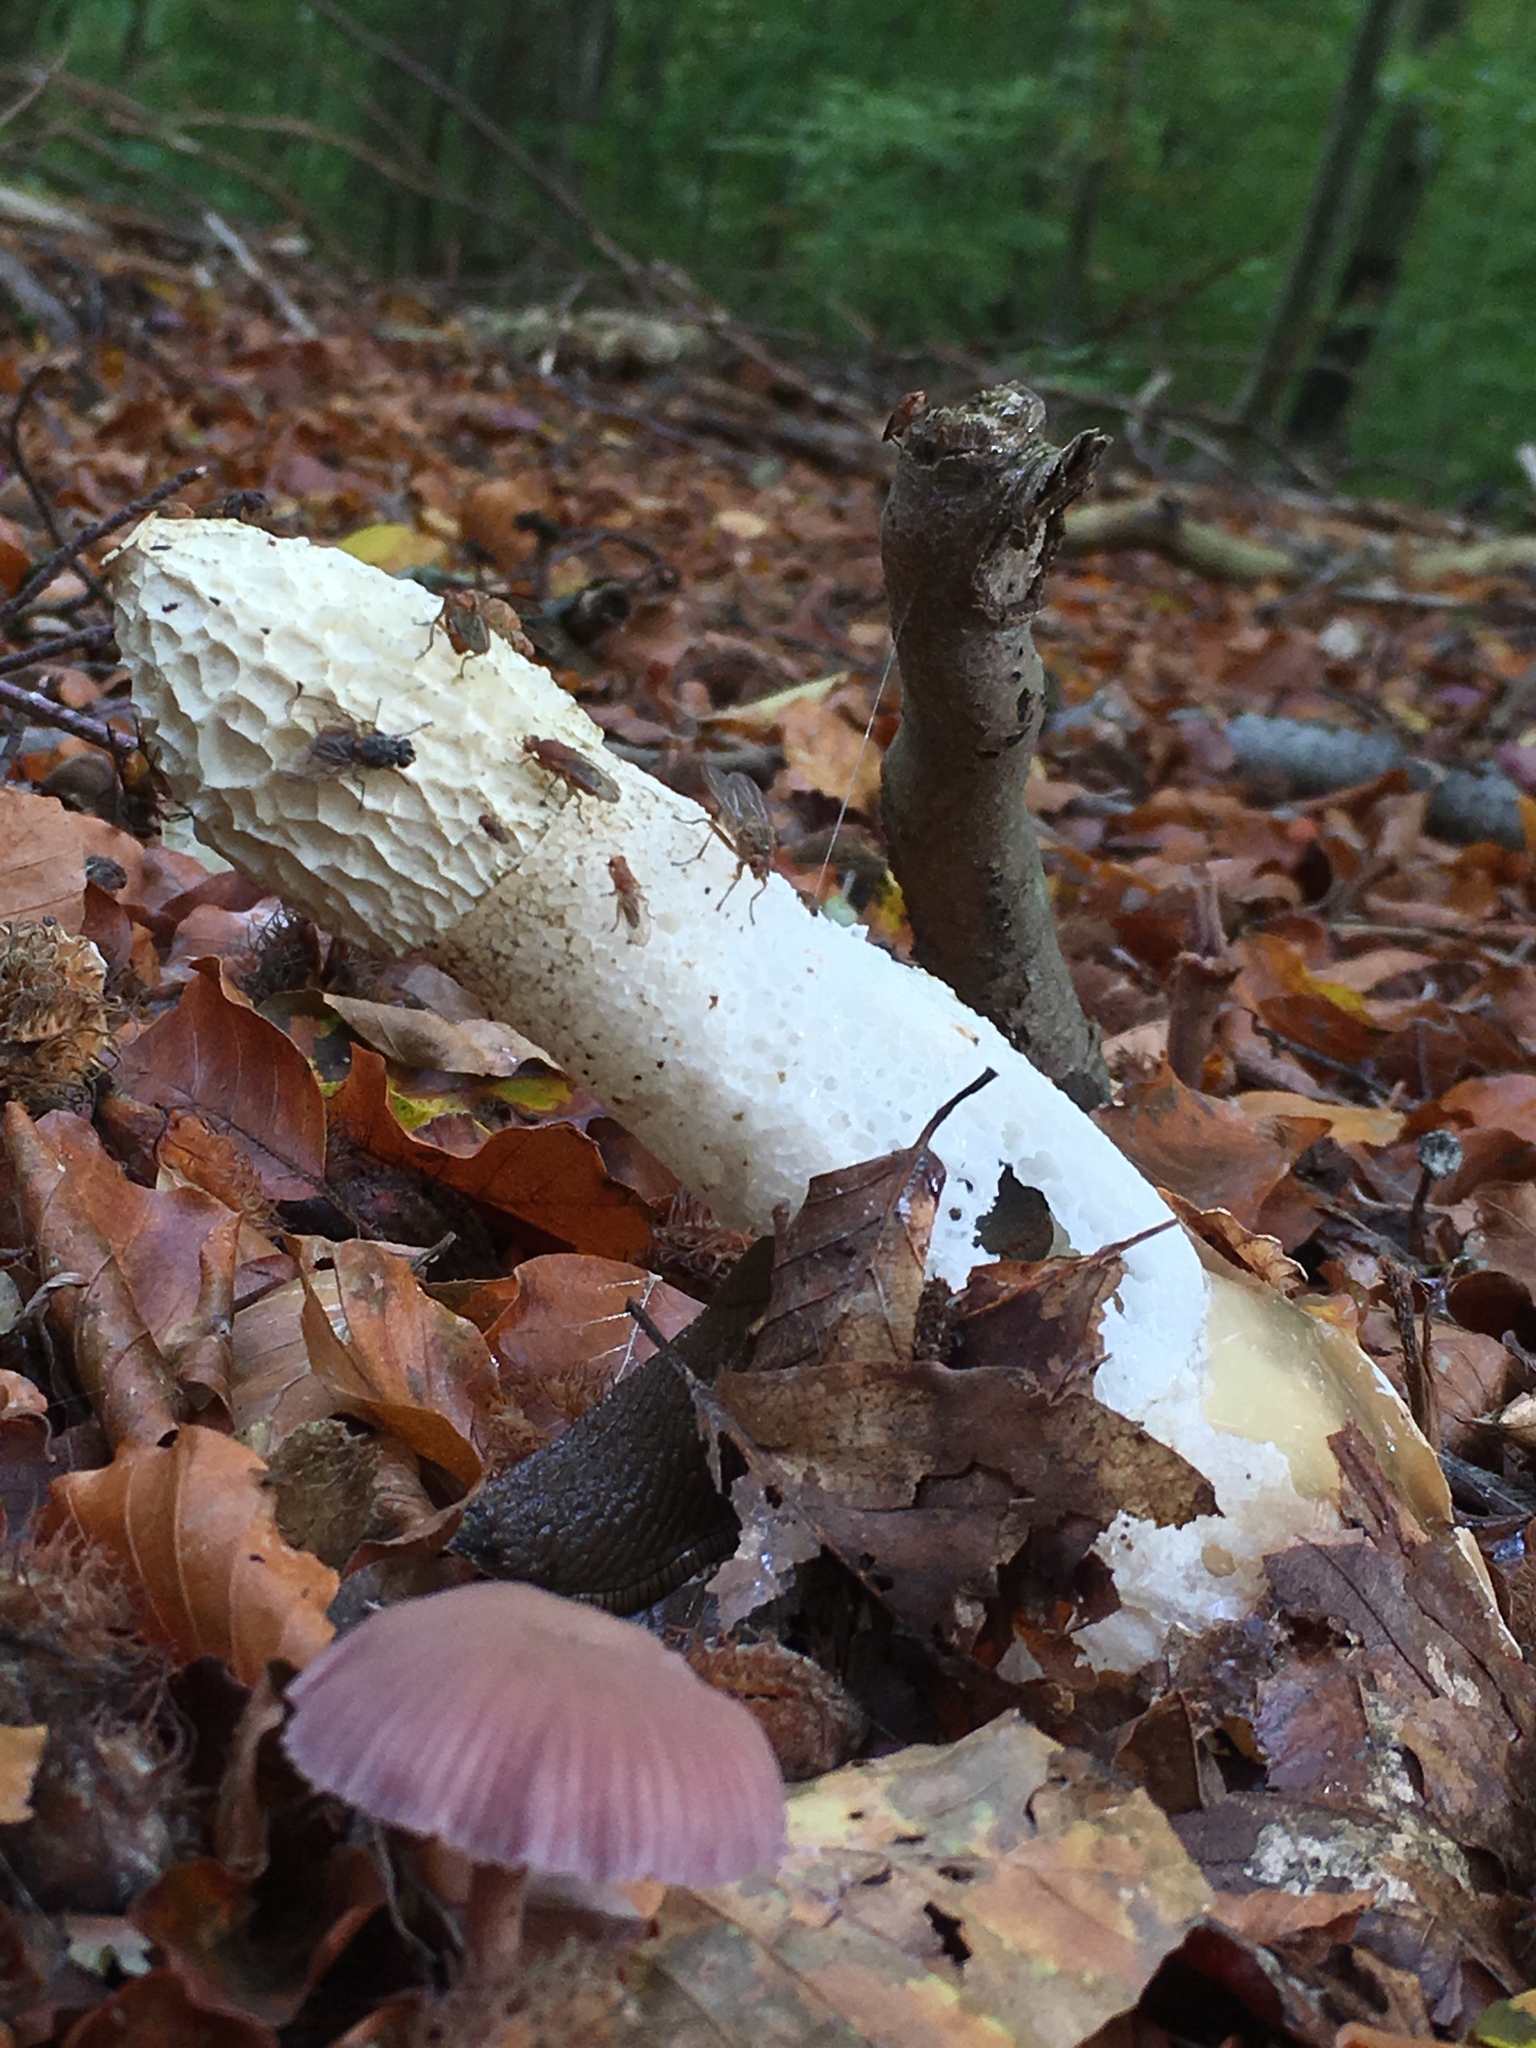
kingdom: Fungi
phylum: Basidiomycota
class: Agaricomycetes
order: Phallales
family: Phallaceae
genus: Phallus
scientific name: Phallus impudicus
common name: Common stinkhorn
